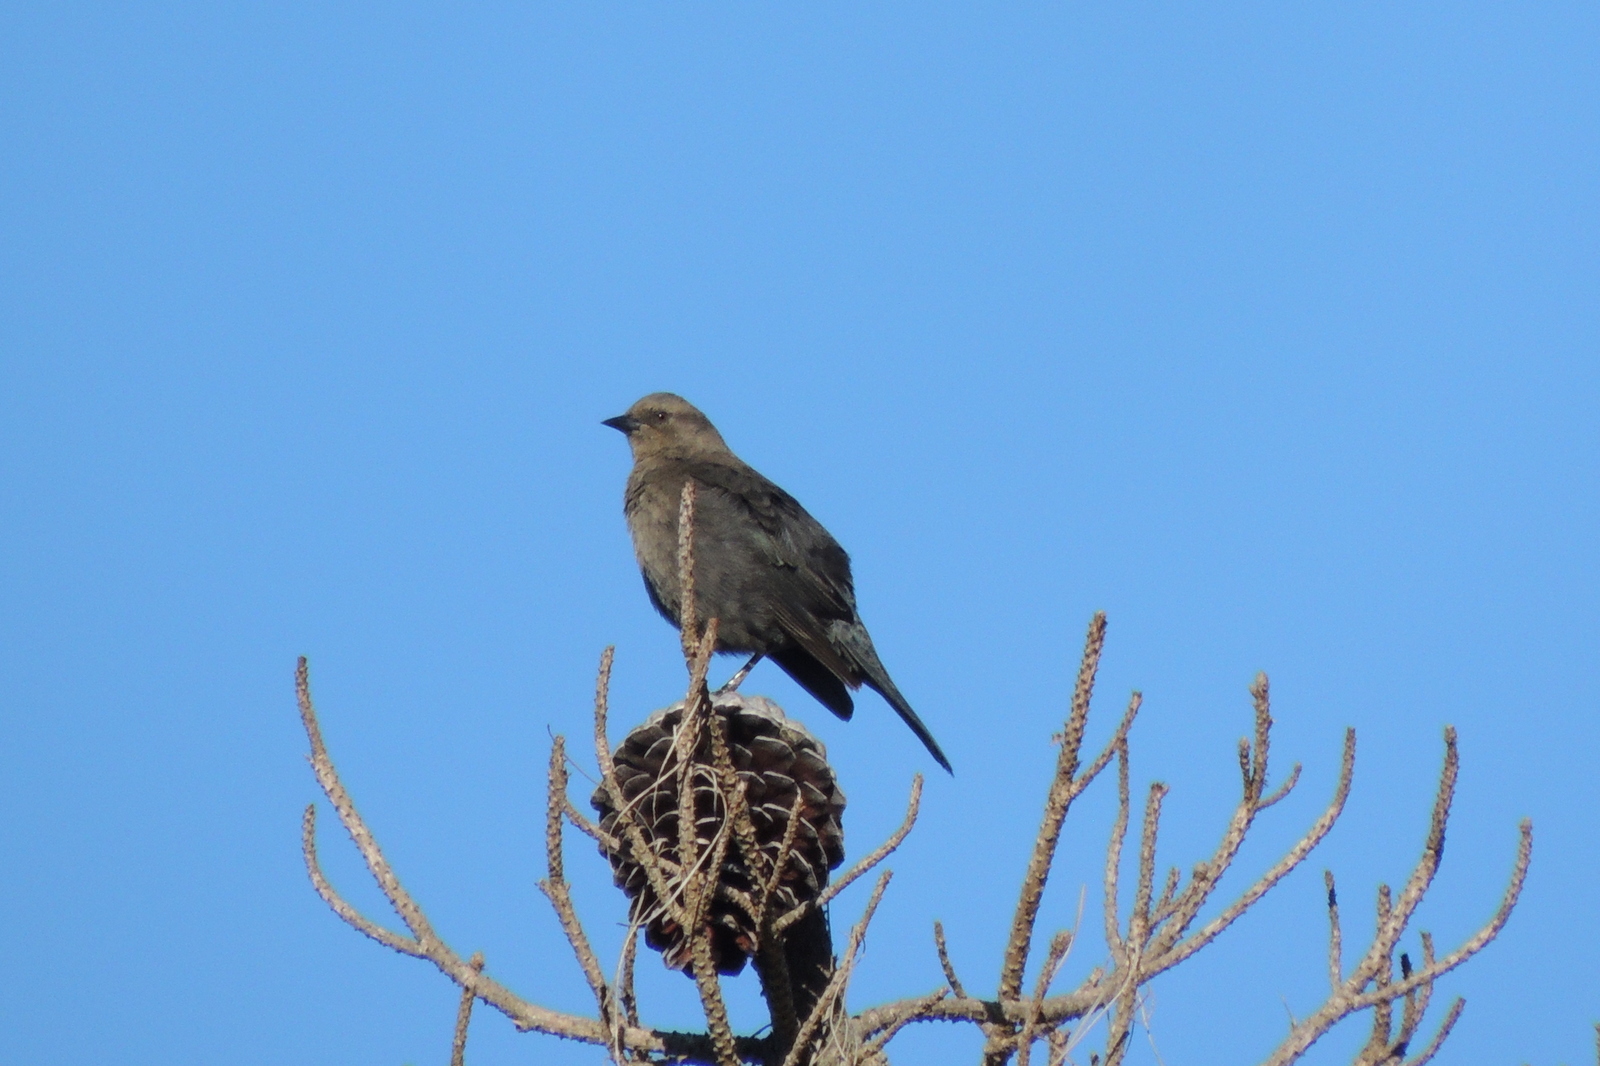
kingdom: Animalia
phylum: Chordata
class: Aves
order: Passeriformes
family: Icteridae
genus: Euphagus
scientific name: Euphagus cyanocephalus
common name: Brewer's blackbird
